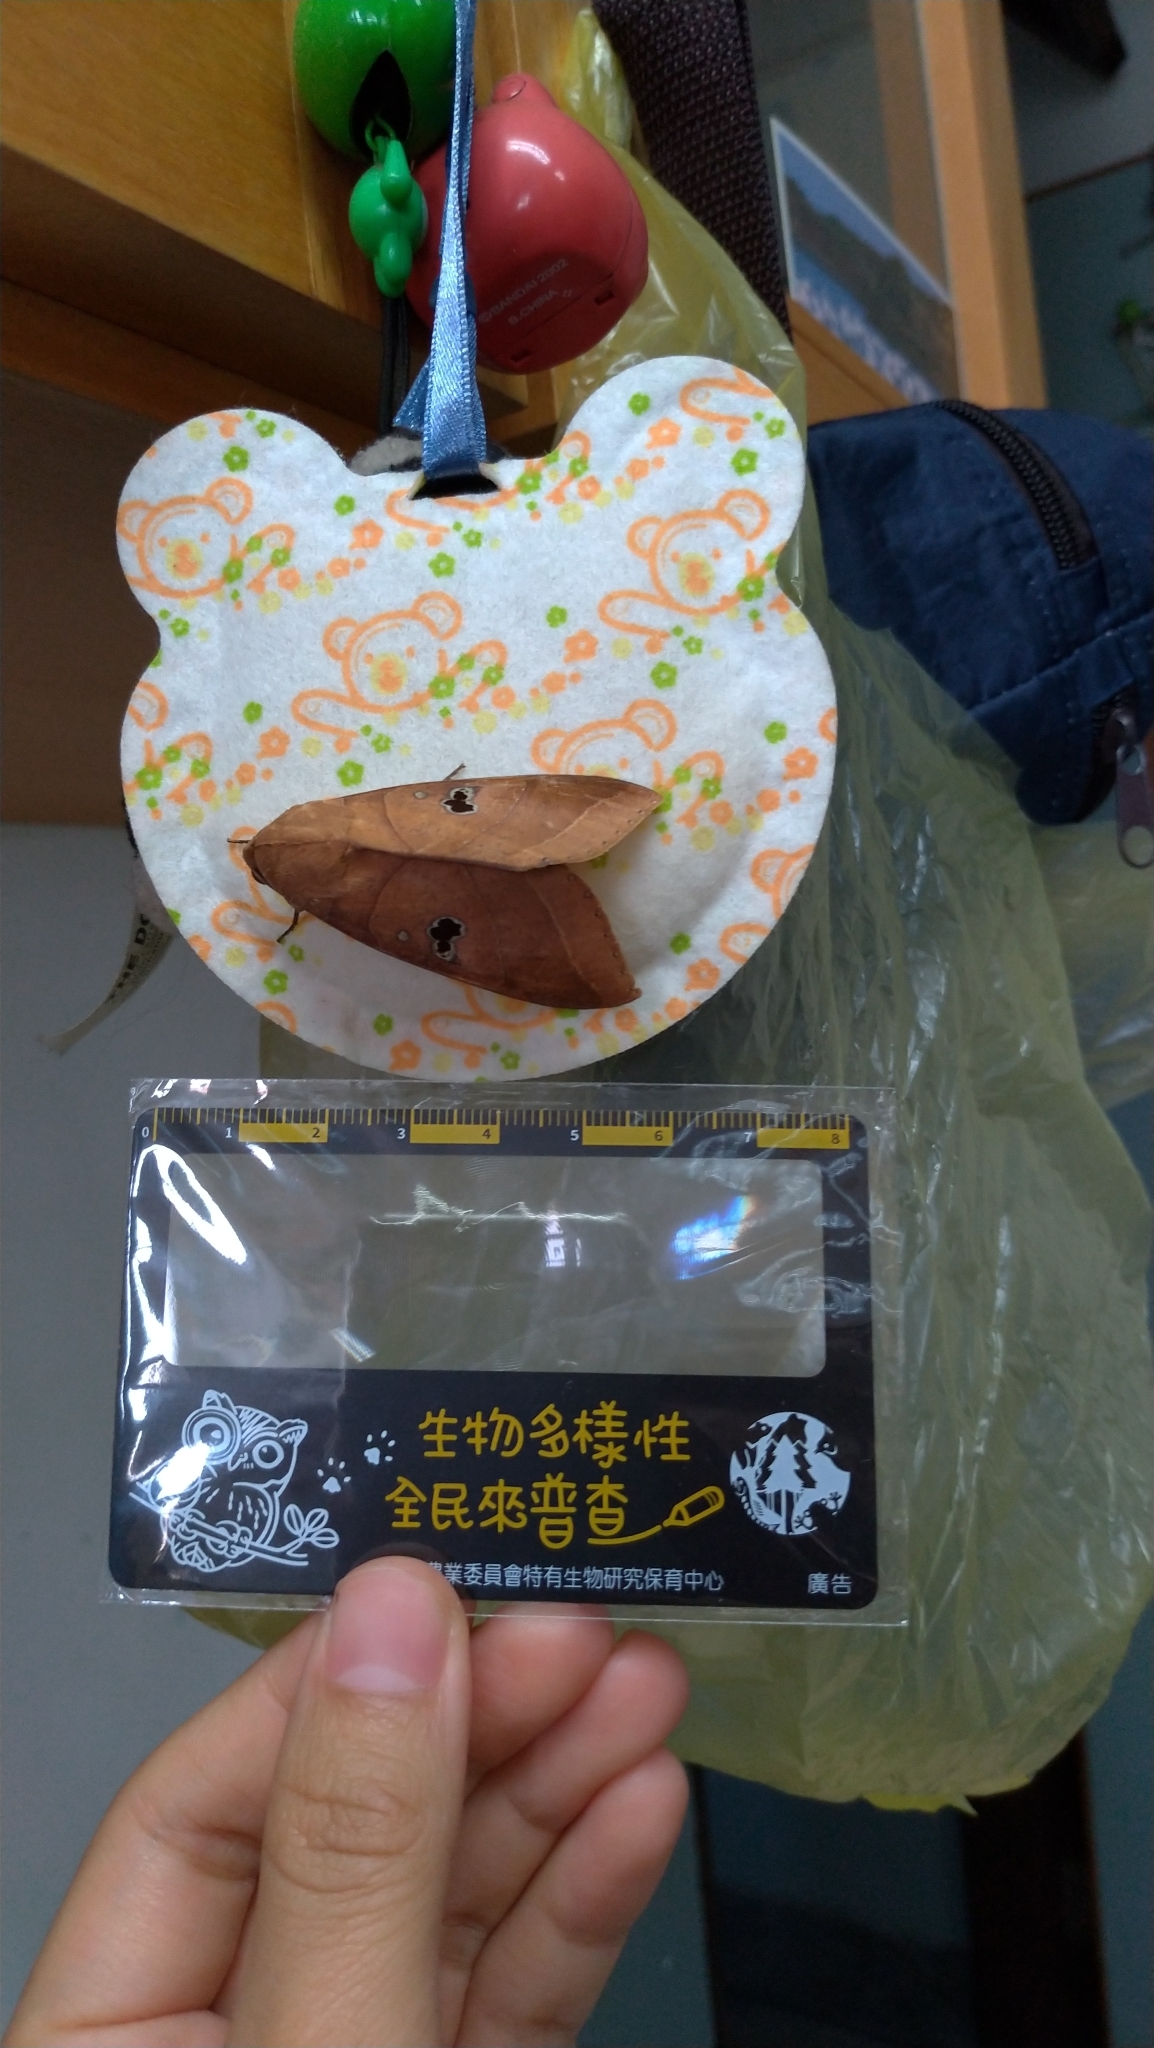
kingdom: Animalia
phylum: Arthropoda
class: Insecta
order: Lepidoptera
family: Erebidae
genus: Thyas
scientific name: Thyas coronata
